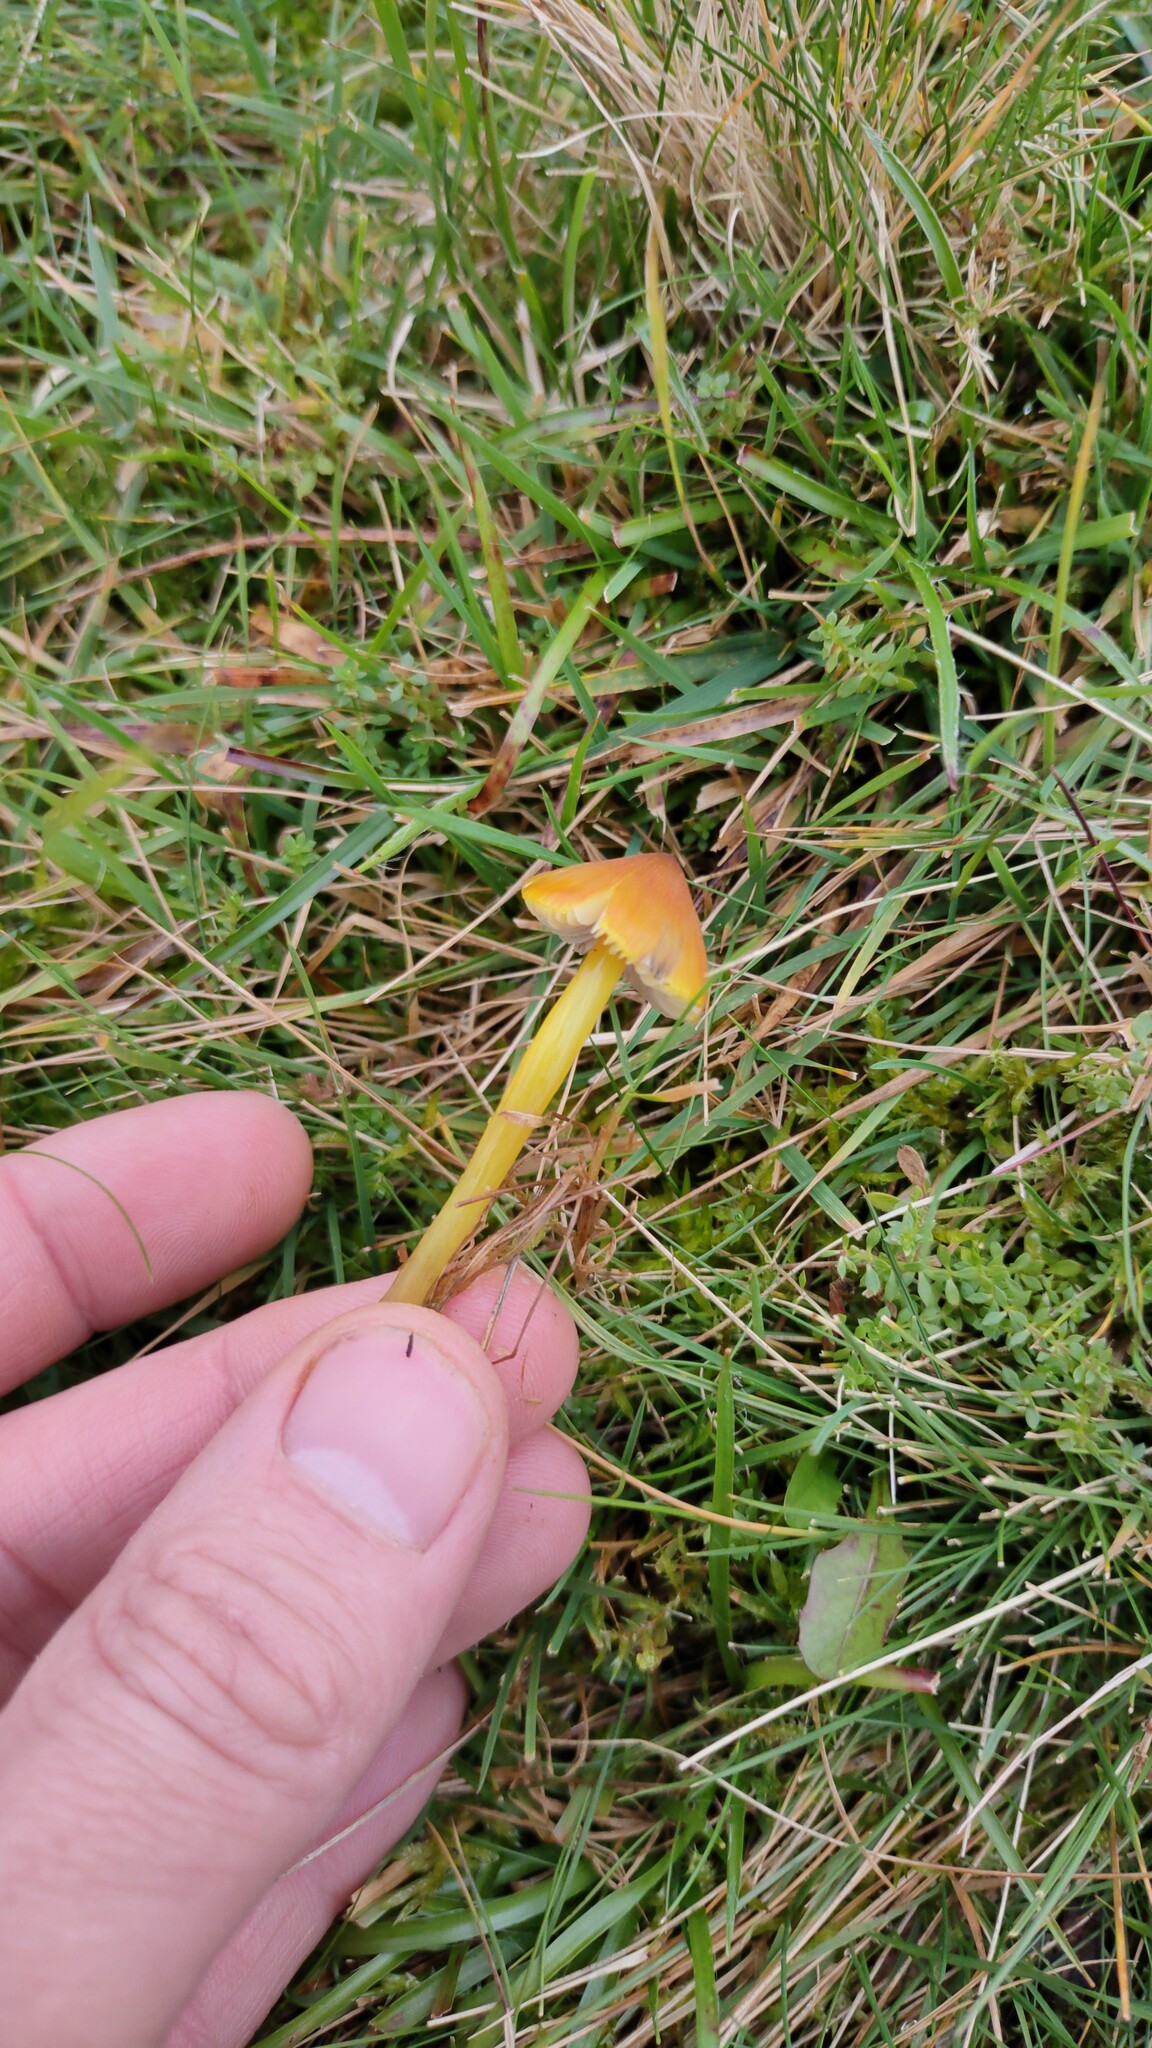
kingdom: Fungi
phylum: Basidiomycota
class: Agaricomycetes
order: Agaricales
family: Hygrophoraceae
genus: Hygrocybe
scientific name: Hygrocybe conica
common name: Blackening wax-cap
